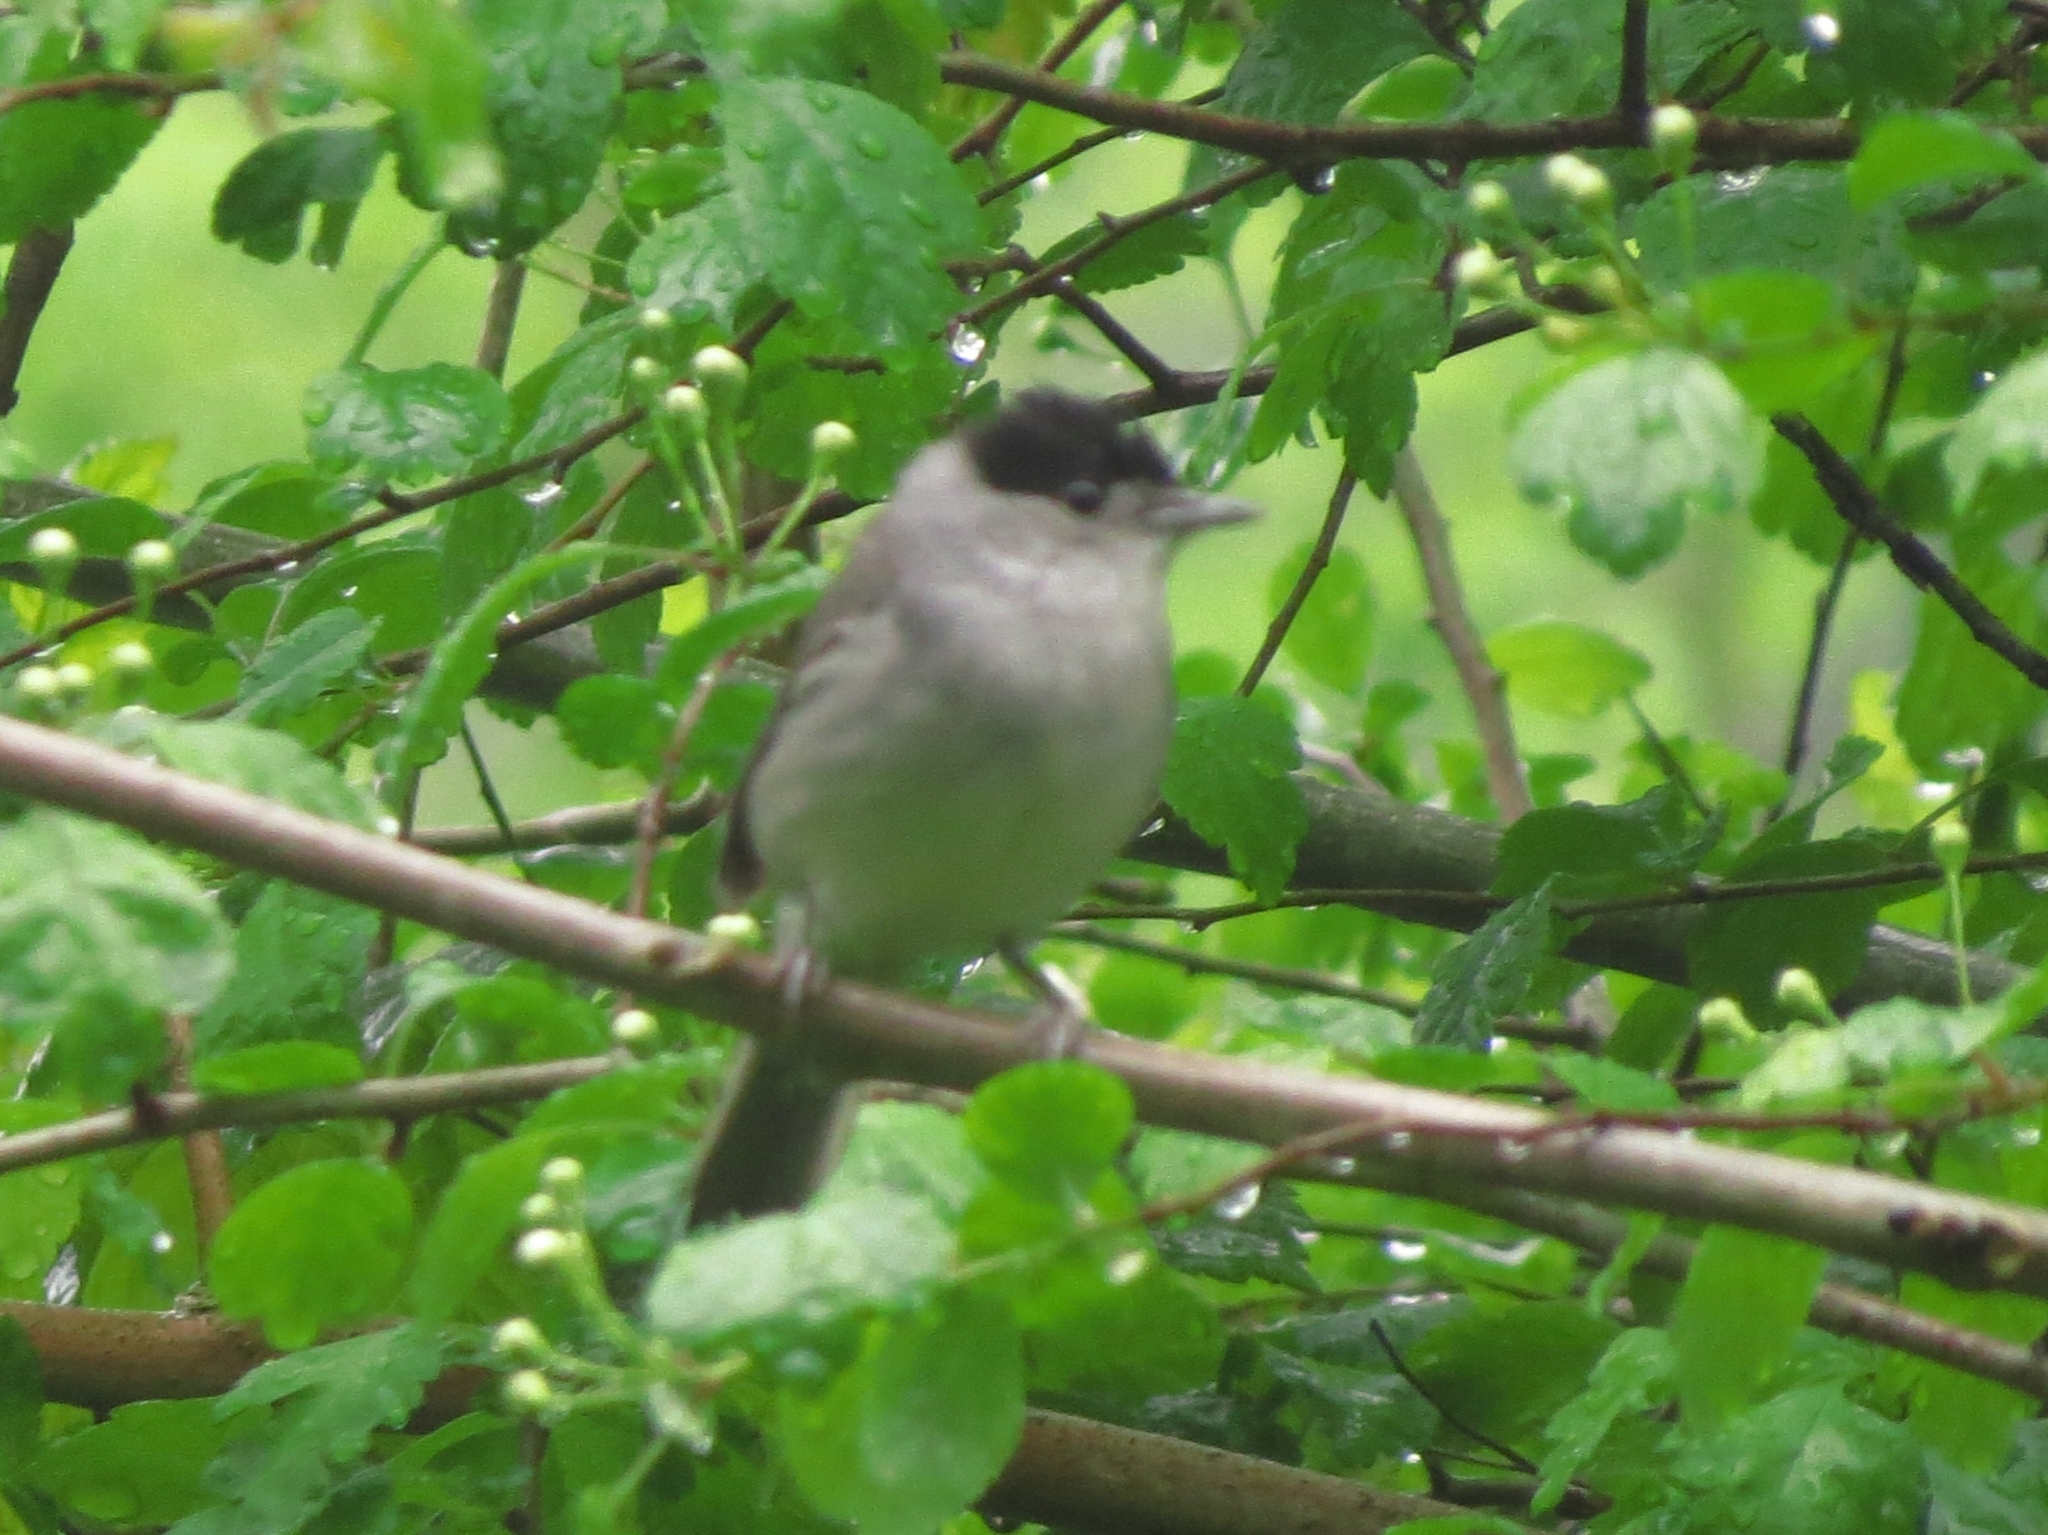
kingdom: Animalia
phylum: Chordata
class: Aves
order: Passeriformes
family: Sylviidae
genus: Sylvia
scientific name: Sylvia atricapilla
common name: Eurasian blackcap
